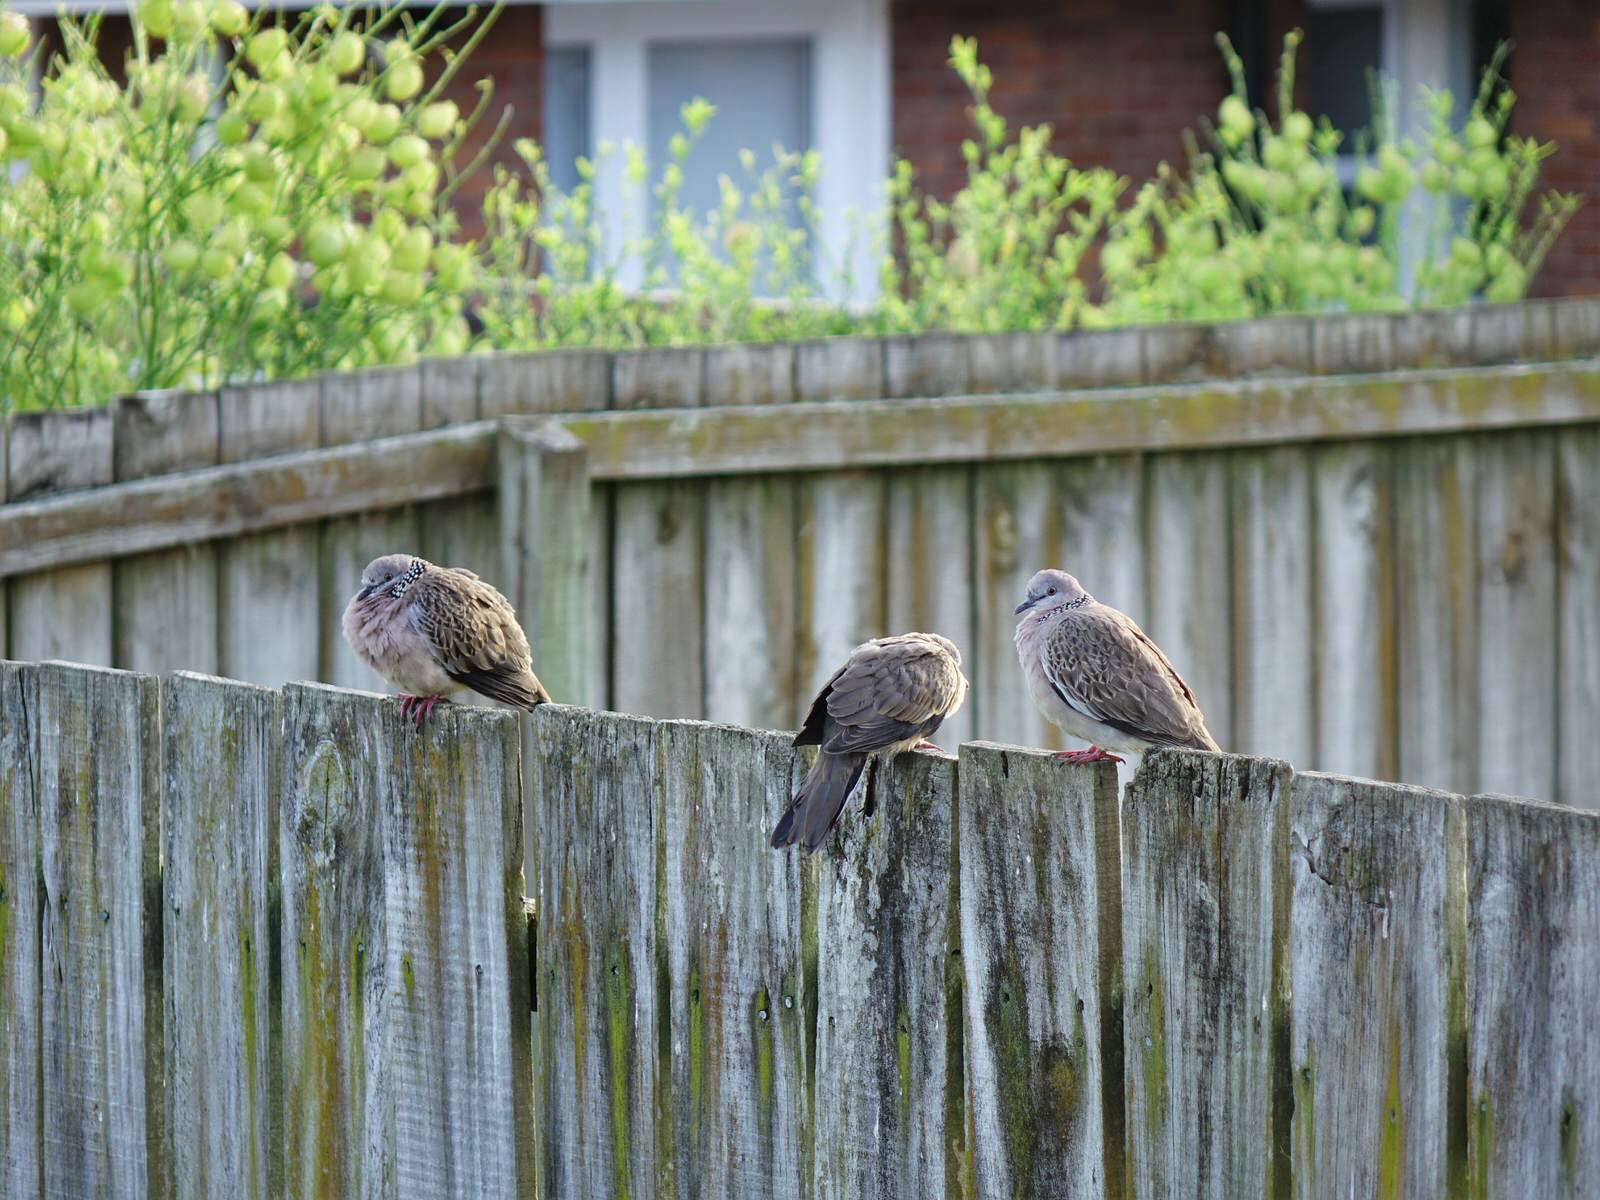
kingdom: Animalia
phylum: Chordata
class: Aves
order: Columbiformes
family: Columbidae
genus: Spilopelia
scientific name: Spilopelia chinensis
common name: Spotted dove
